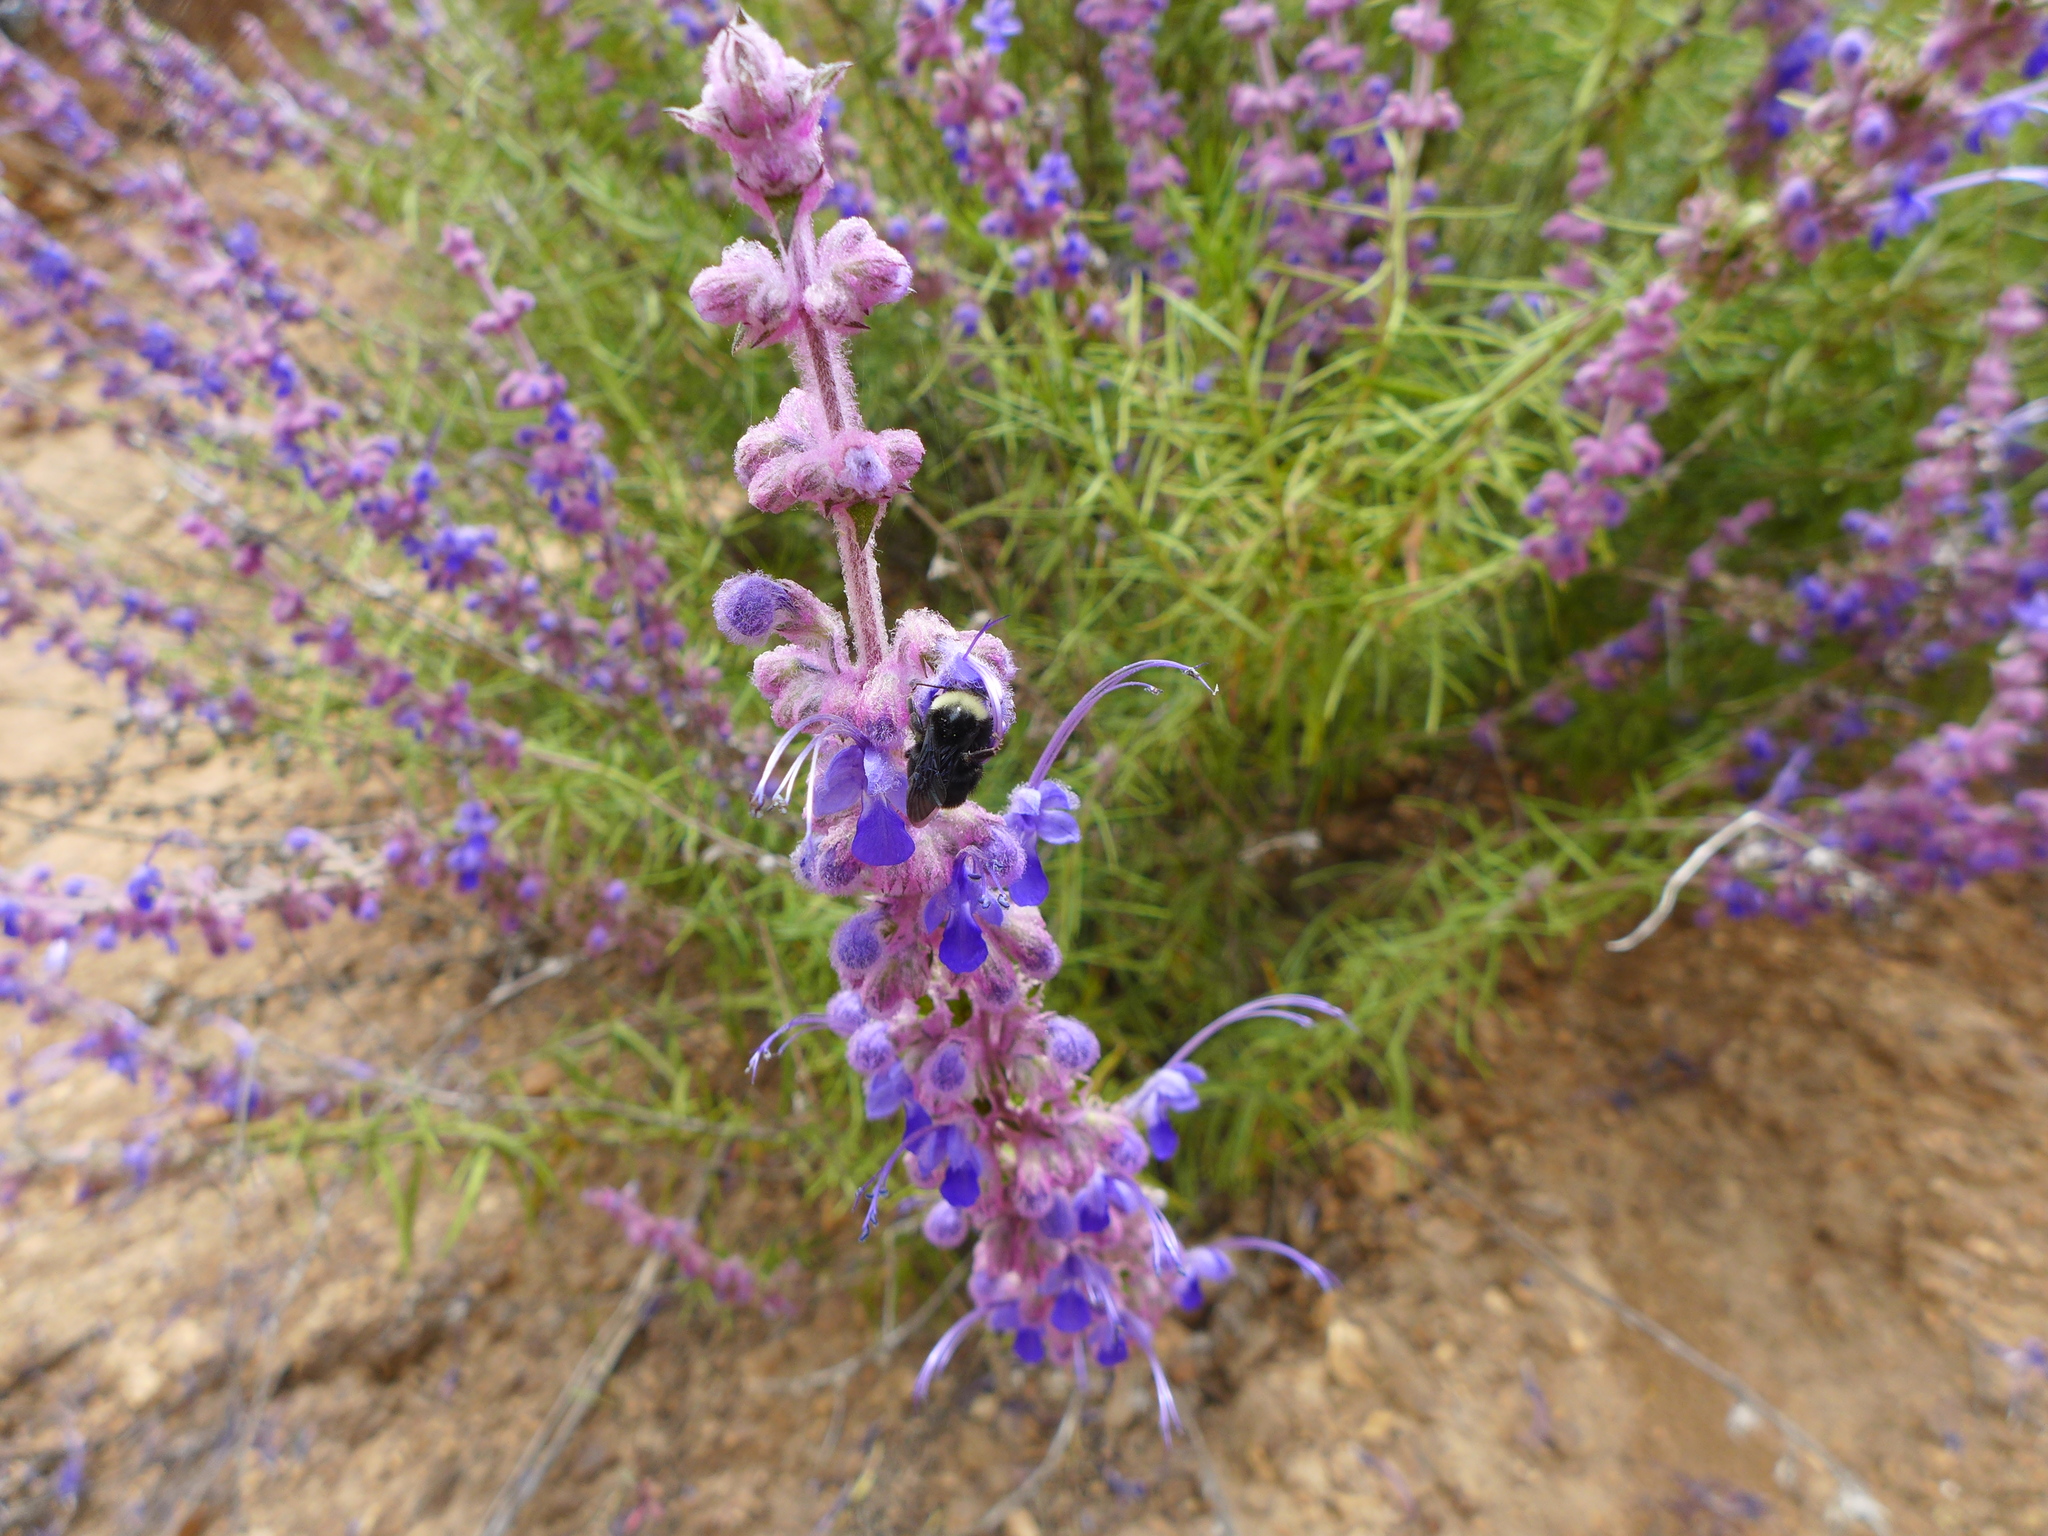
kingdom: Plantae
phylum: Tracheophyta
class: Magnoliopsida
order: Lamiales
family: Lamiaceae
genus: Trichostema
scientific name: Trichostema lanatum
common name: Woolly bluecurls
